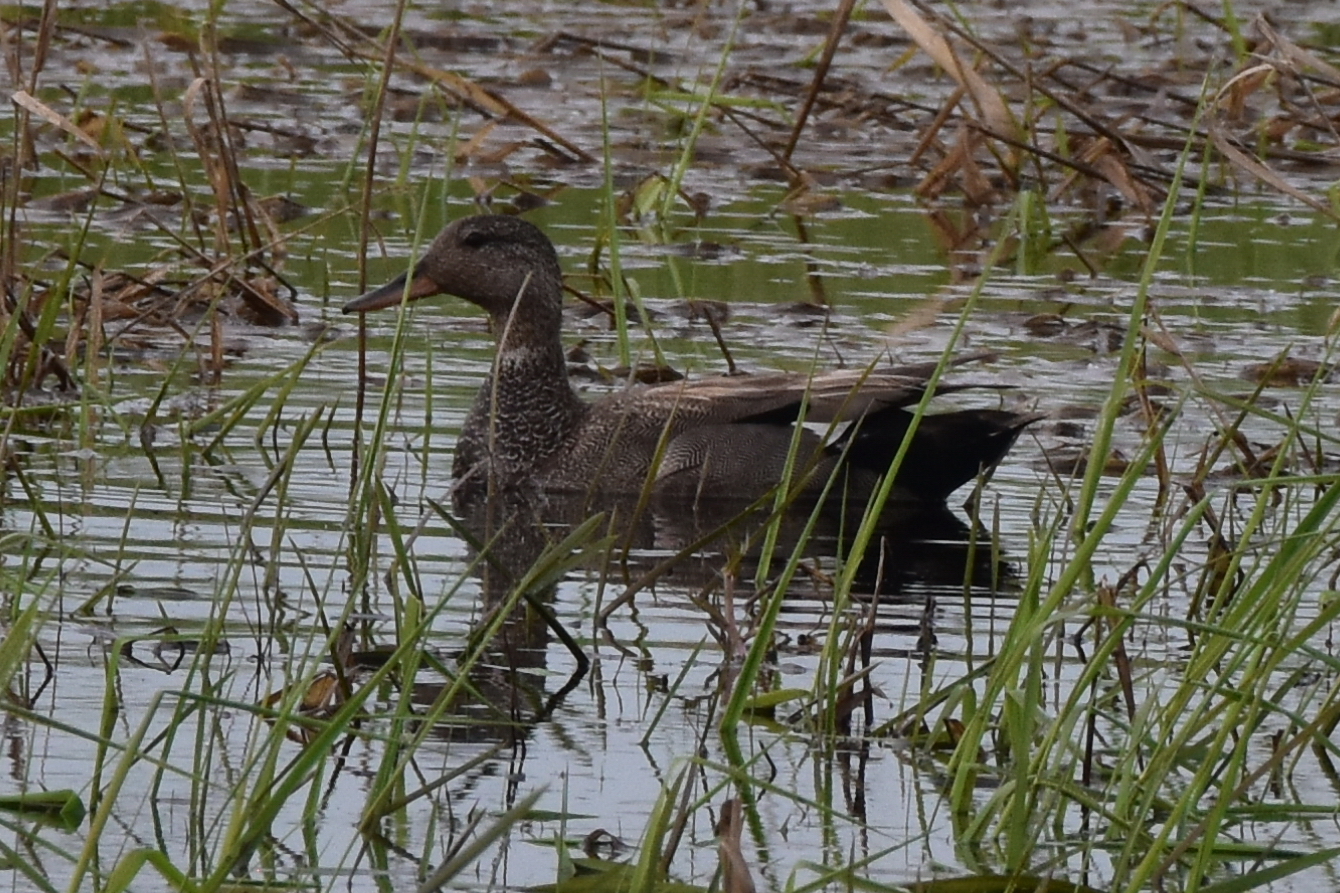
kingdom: Animalia
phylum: Chordata
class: Aves
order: Anseriformes
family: Anatidae
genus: Mareca
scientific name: Mareca strepera
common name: Gadwall
